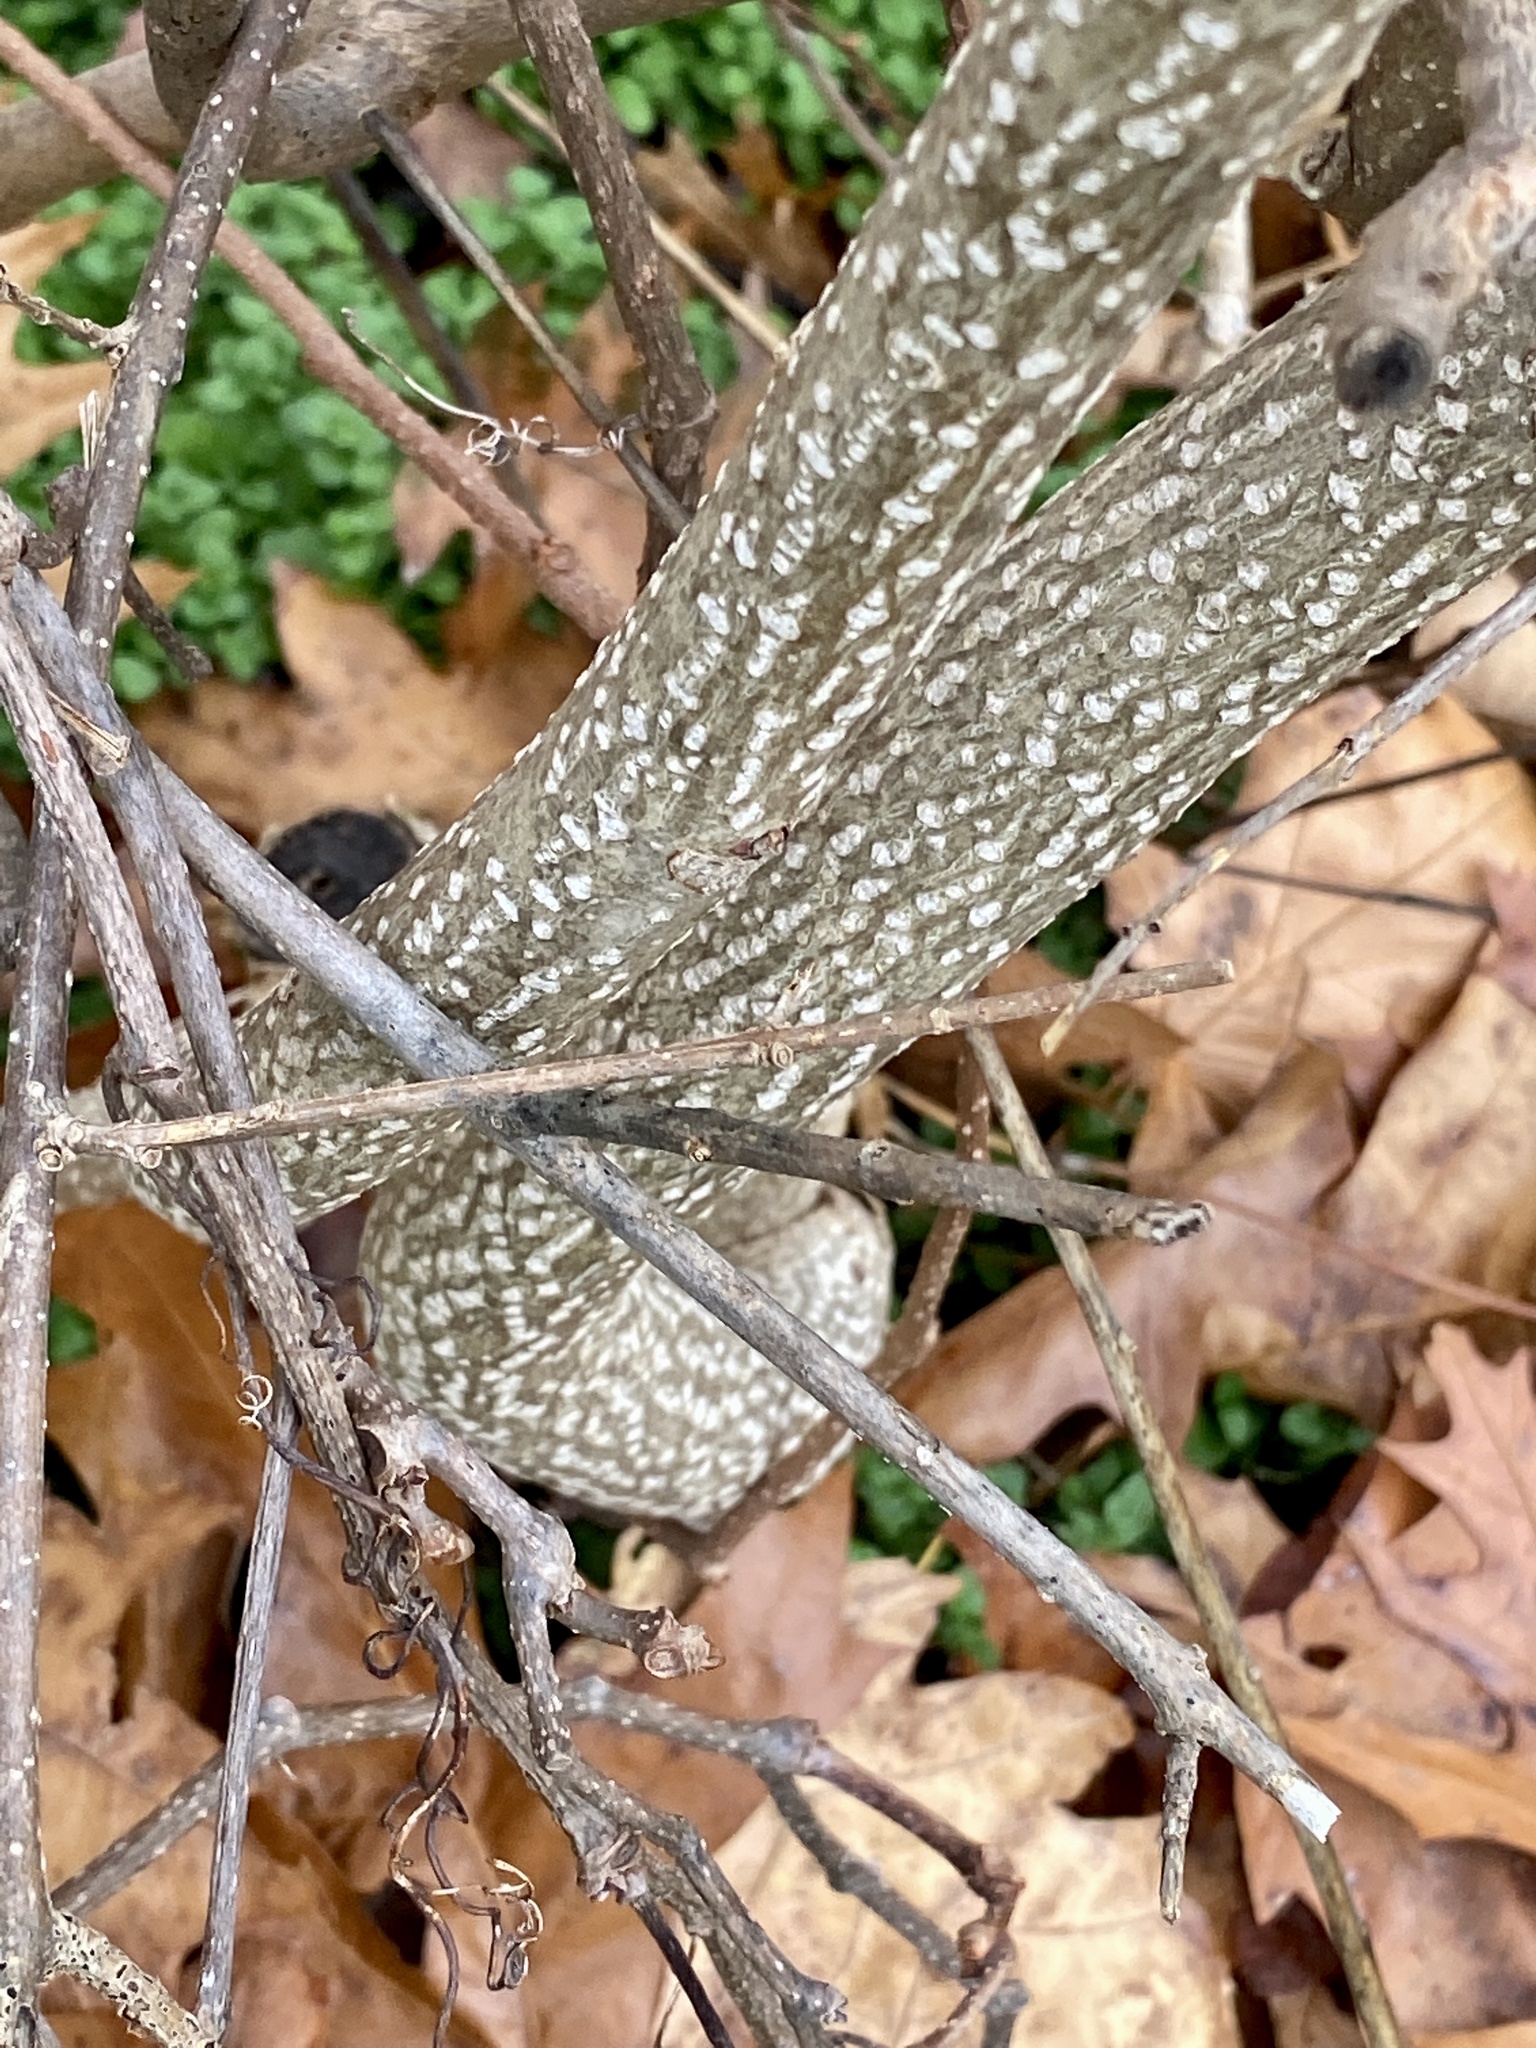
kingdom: Plantae
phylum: Tracheophyta
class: Magnoliopsida
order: Sapindales
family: Simaroubaceae
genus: Ailanthus
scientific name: Ailanthus altissima
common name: Tree-of-heaven
